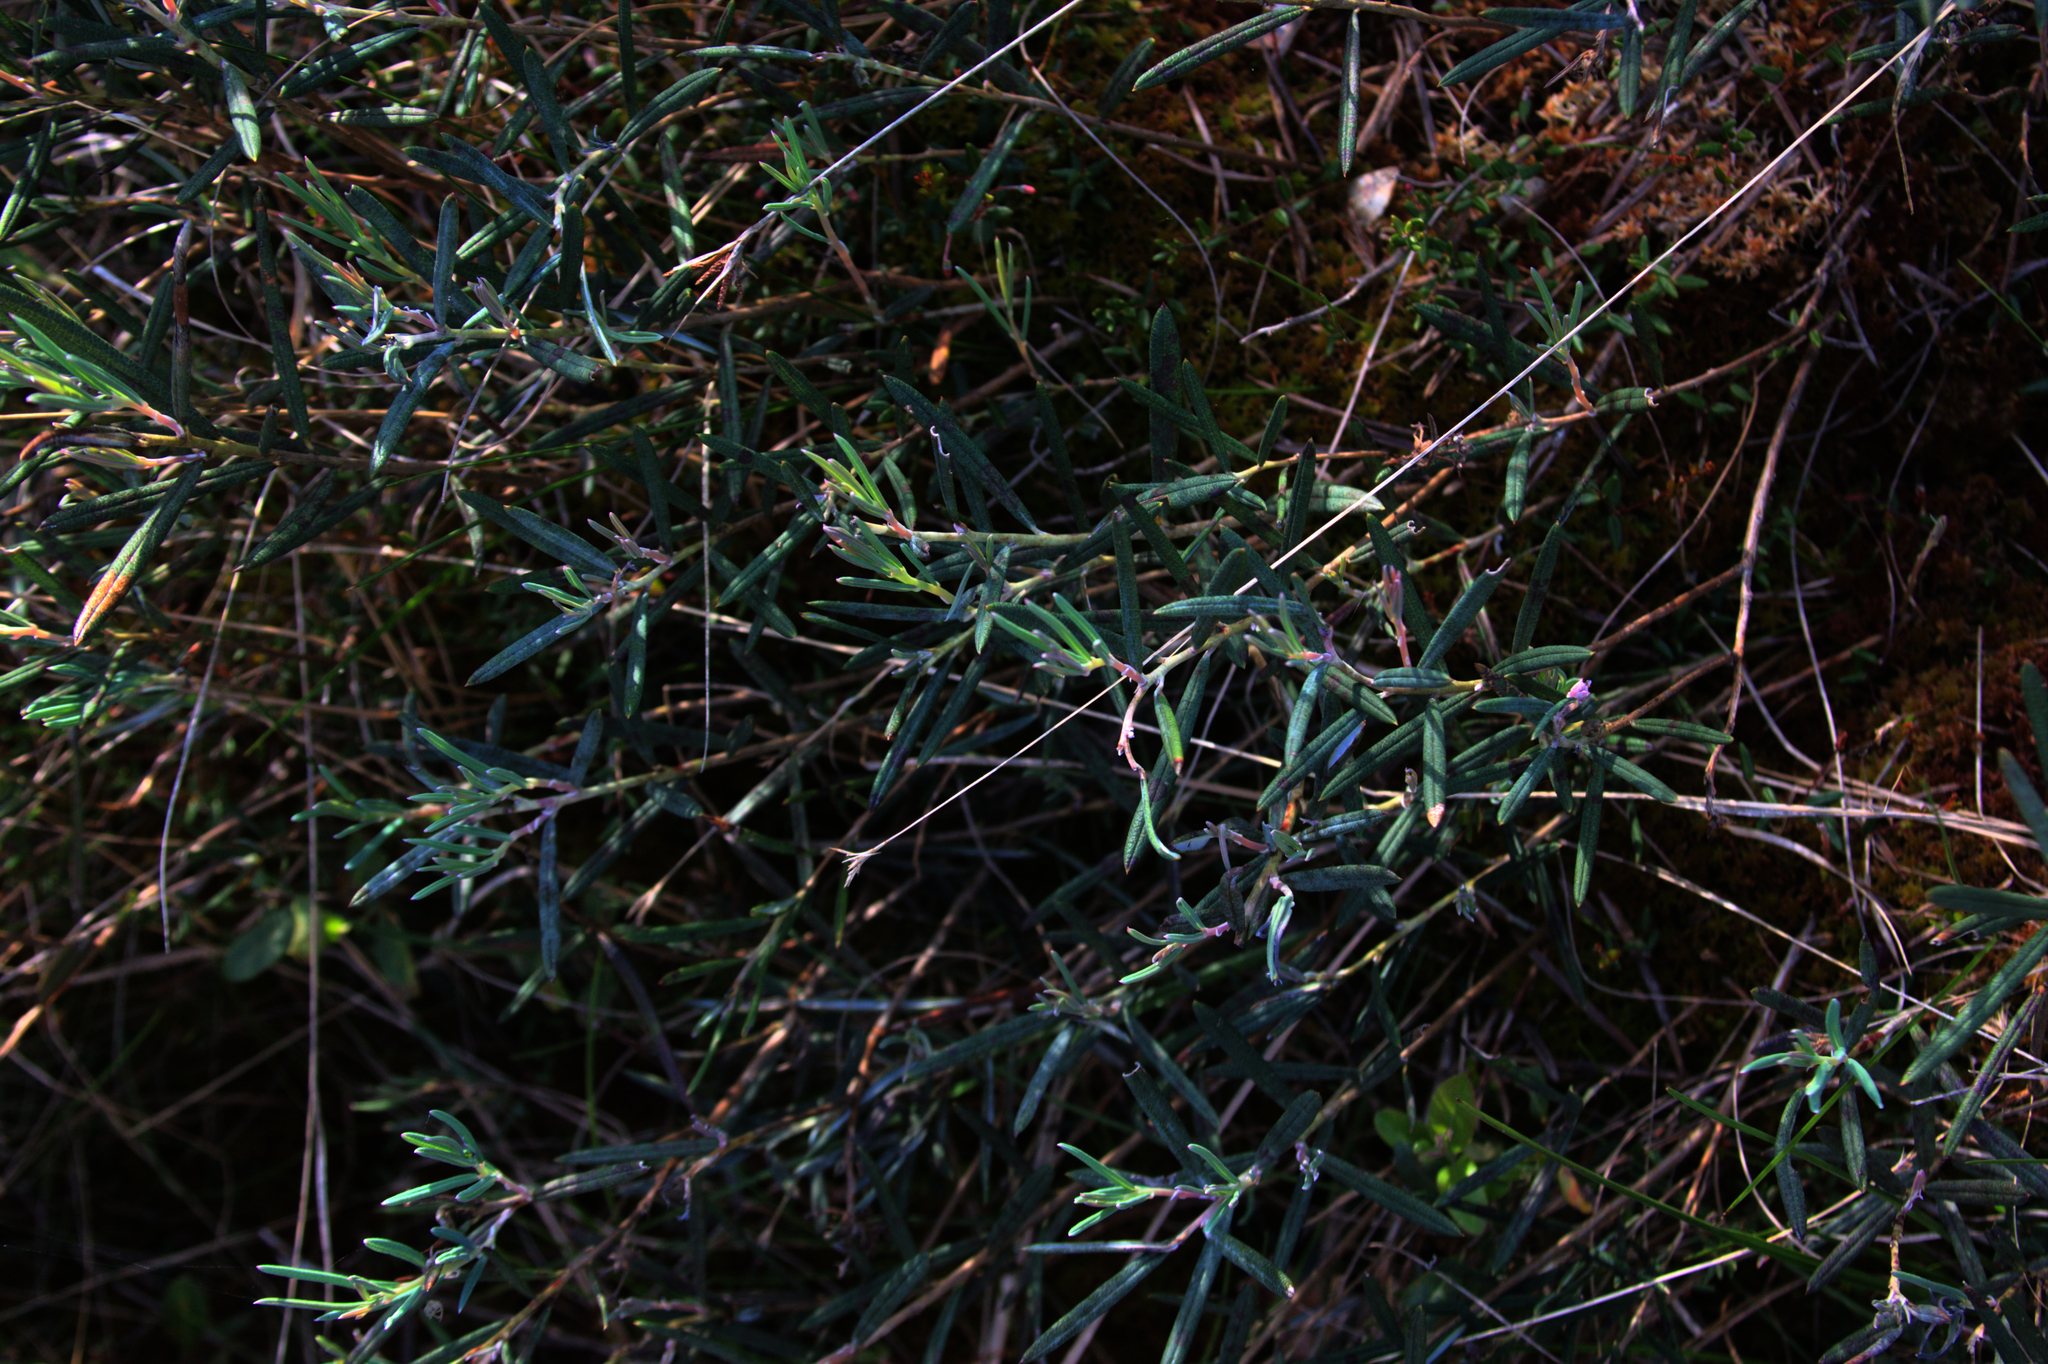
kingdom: Plantae
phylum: Tracheophyta
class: Magnoliopsida
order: Ericales
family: Ericaceae
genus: Andromeda
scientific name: Andromeda polifolia
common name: Bog-rosemary
